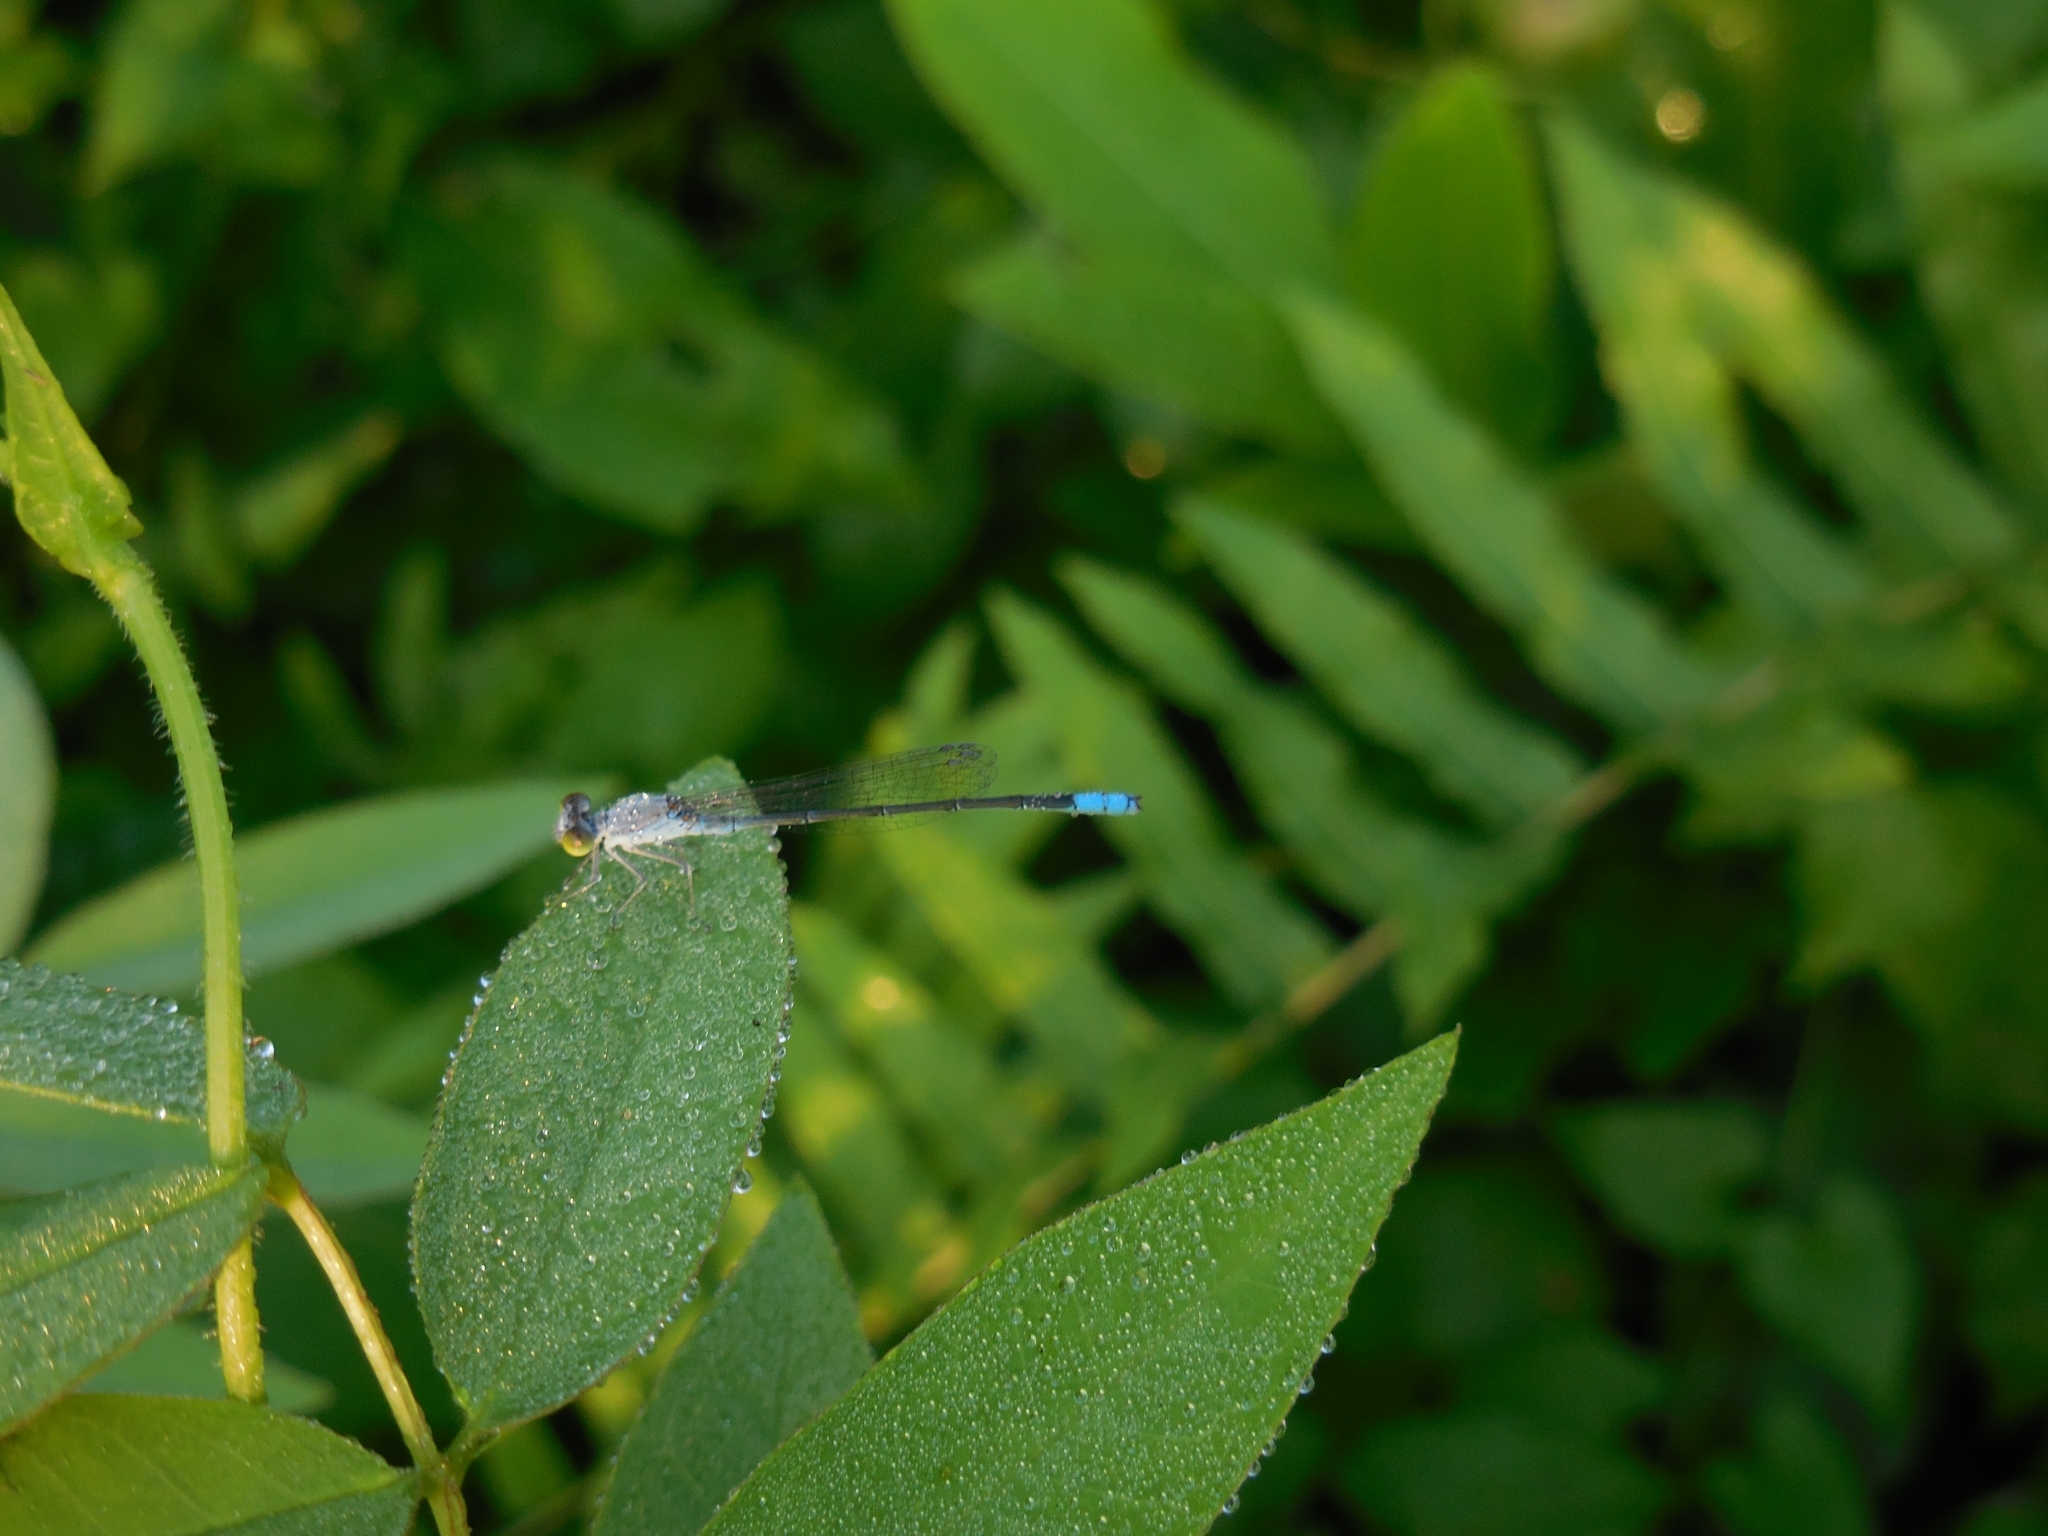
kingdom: Animalia
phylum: Arthropoda
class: Insecta
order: Odonata
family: Coenagrionidae
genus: Paracercion
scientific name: Paracercion calamorum
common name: Dusky lilysquatter
